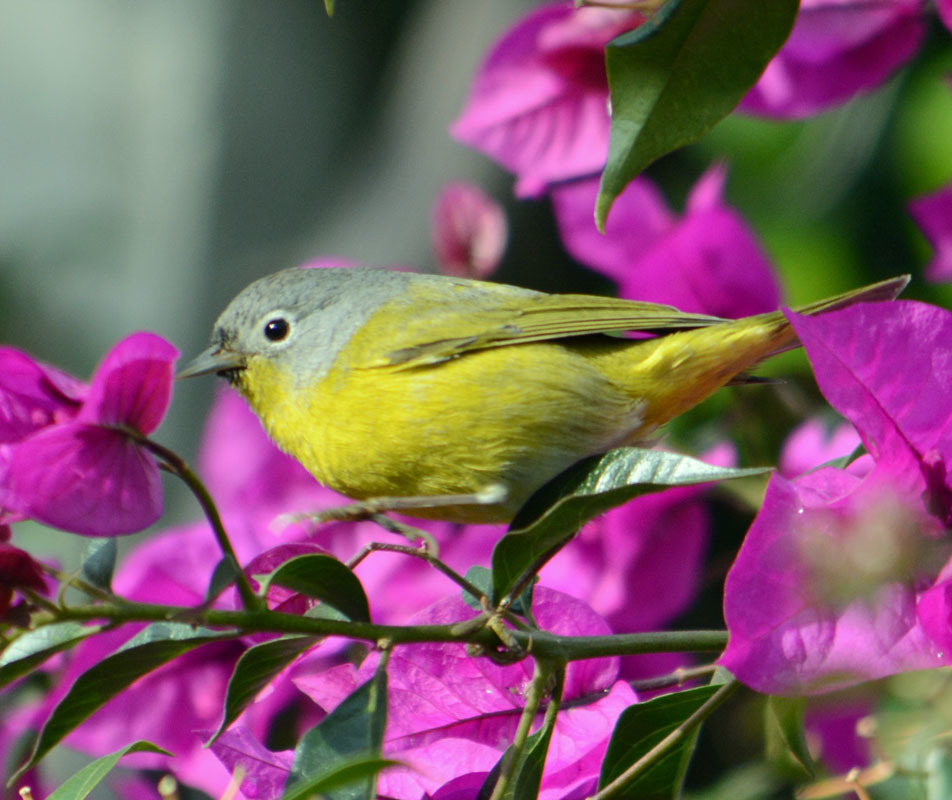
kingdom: Animalia
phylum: Chordata
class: Aves
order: Passeriformes
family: Parulidae
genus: Leiothlypis
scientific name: Leiothlypis ruficapilla
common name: Nashville warbler
